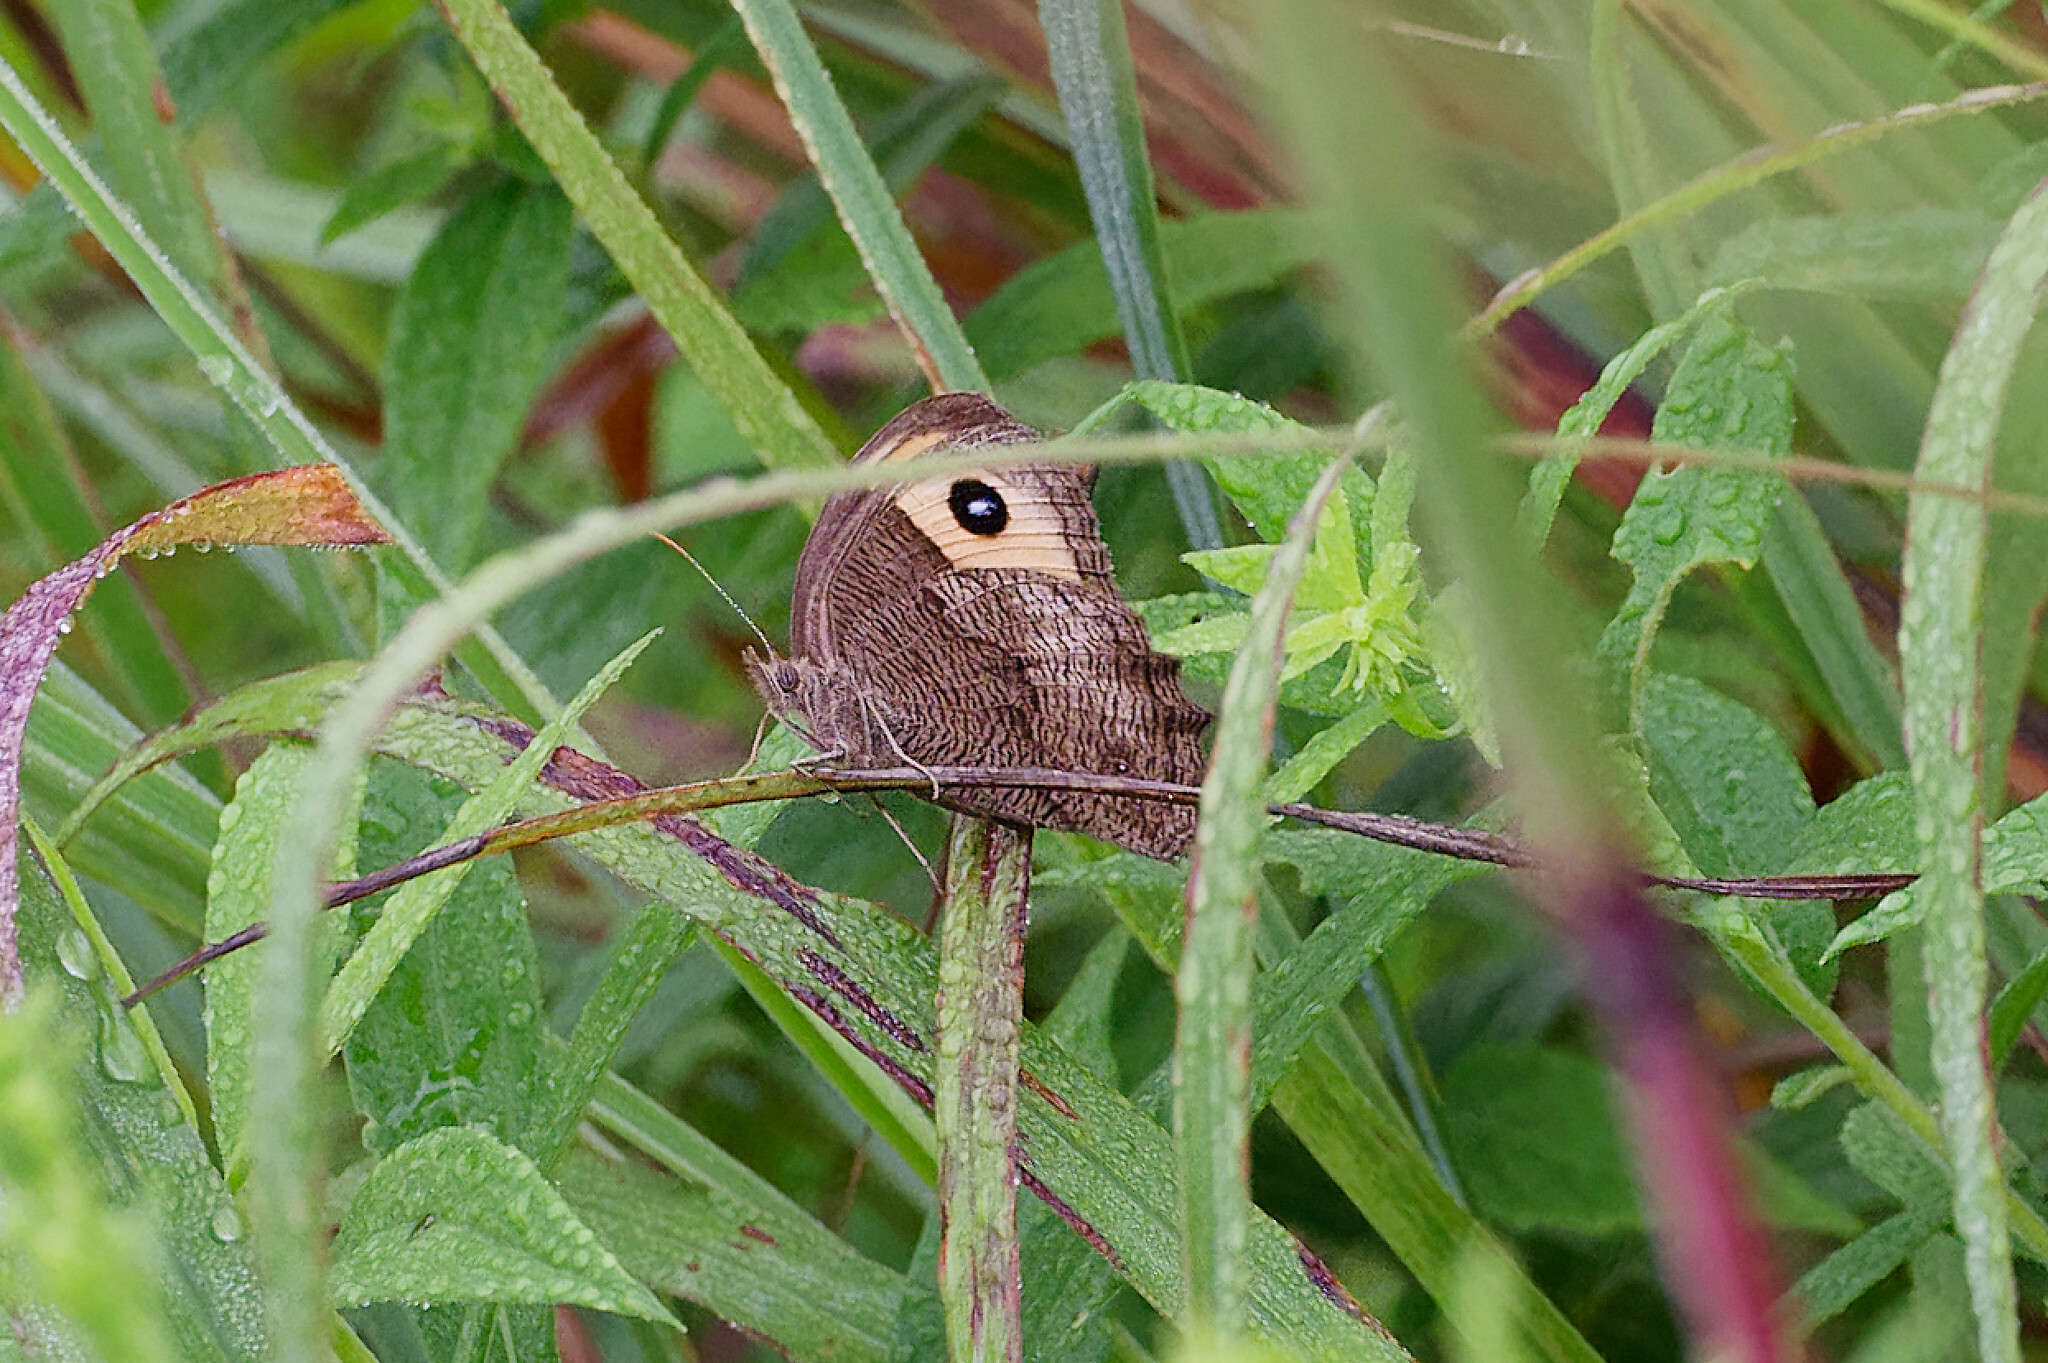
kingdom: Animalia
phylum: Arthropoda
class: Insecta
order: Lepidoptera
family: Nymphalidae
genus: Cercyonis
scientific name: Cercyonis pegala
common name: Common wood-nymph
